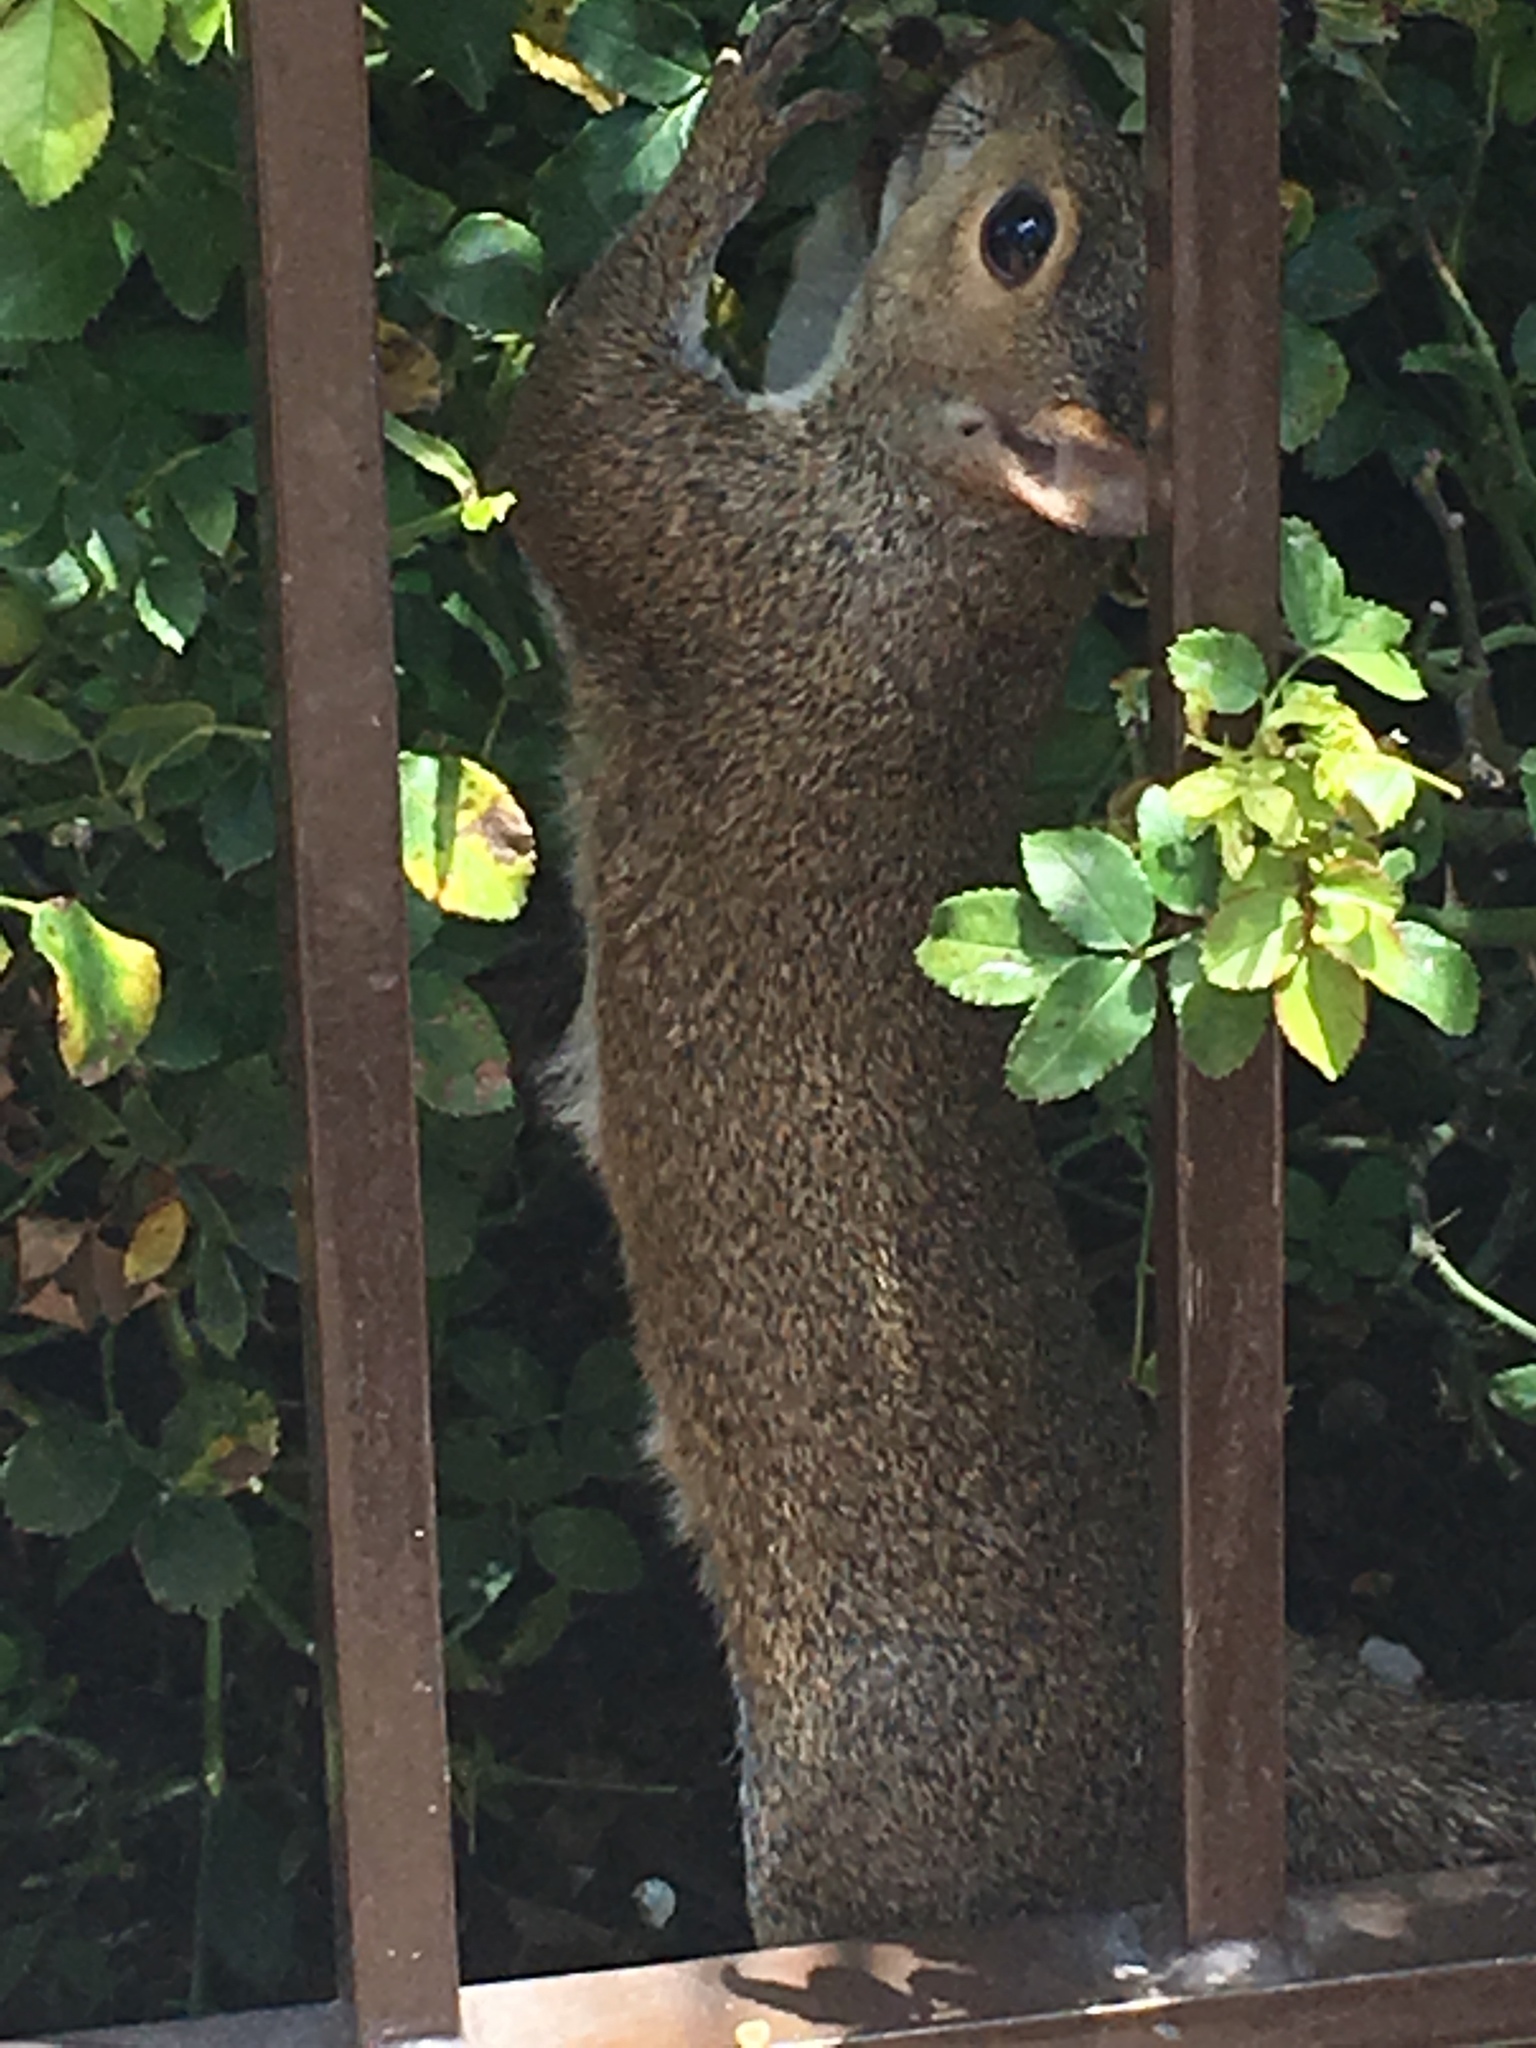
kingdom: Animalia
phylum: Chordata
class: Mammalia
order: Rodentia
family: Sciuridae
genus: Sciurus
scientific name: Sciurus carolinensis
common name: Eastern gray squirrel
